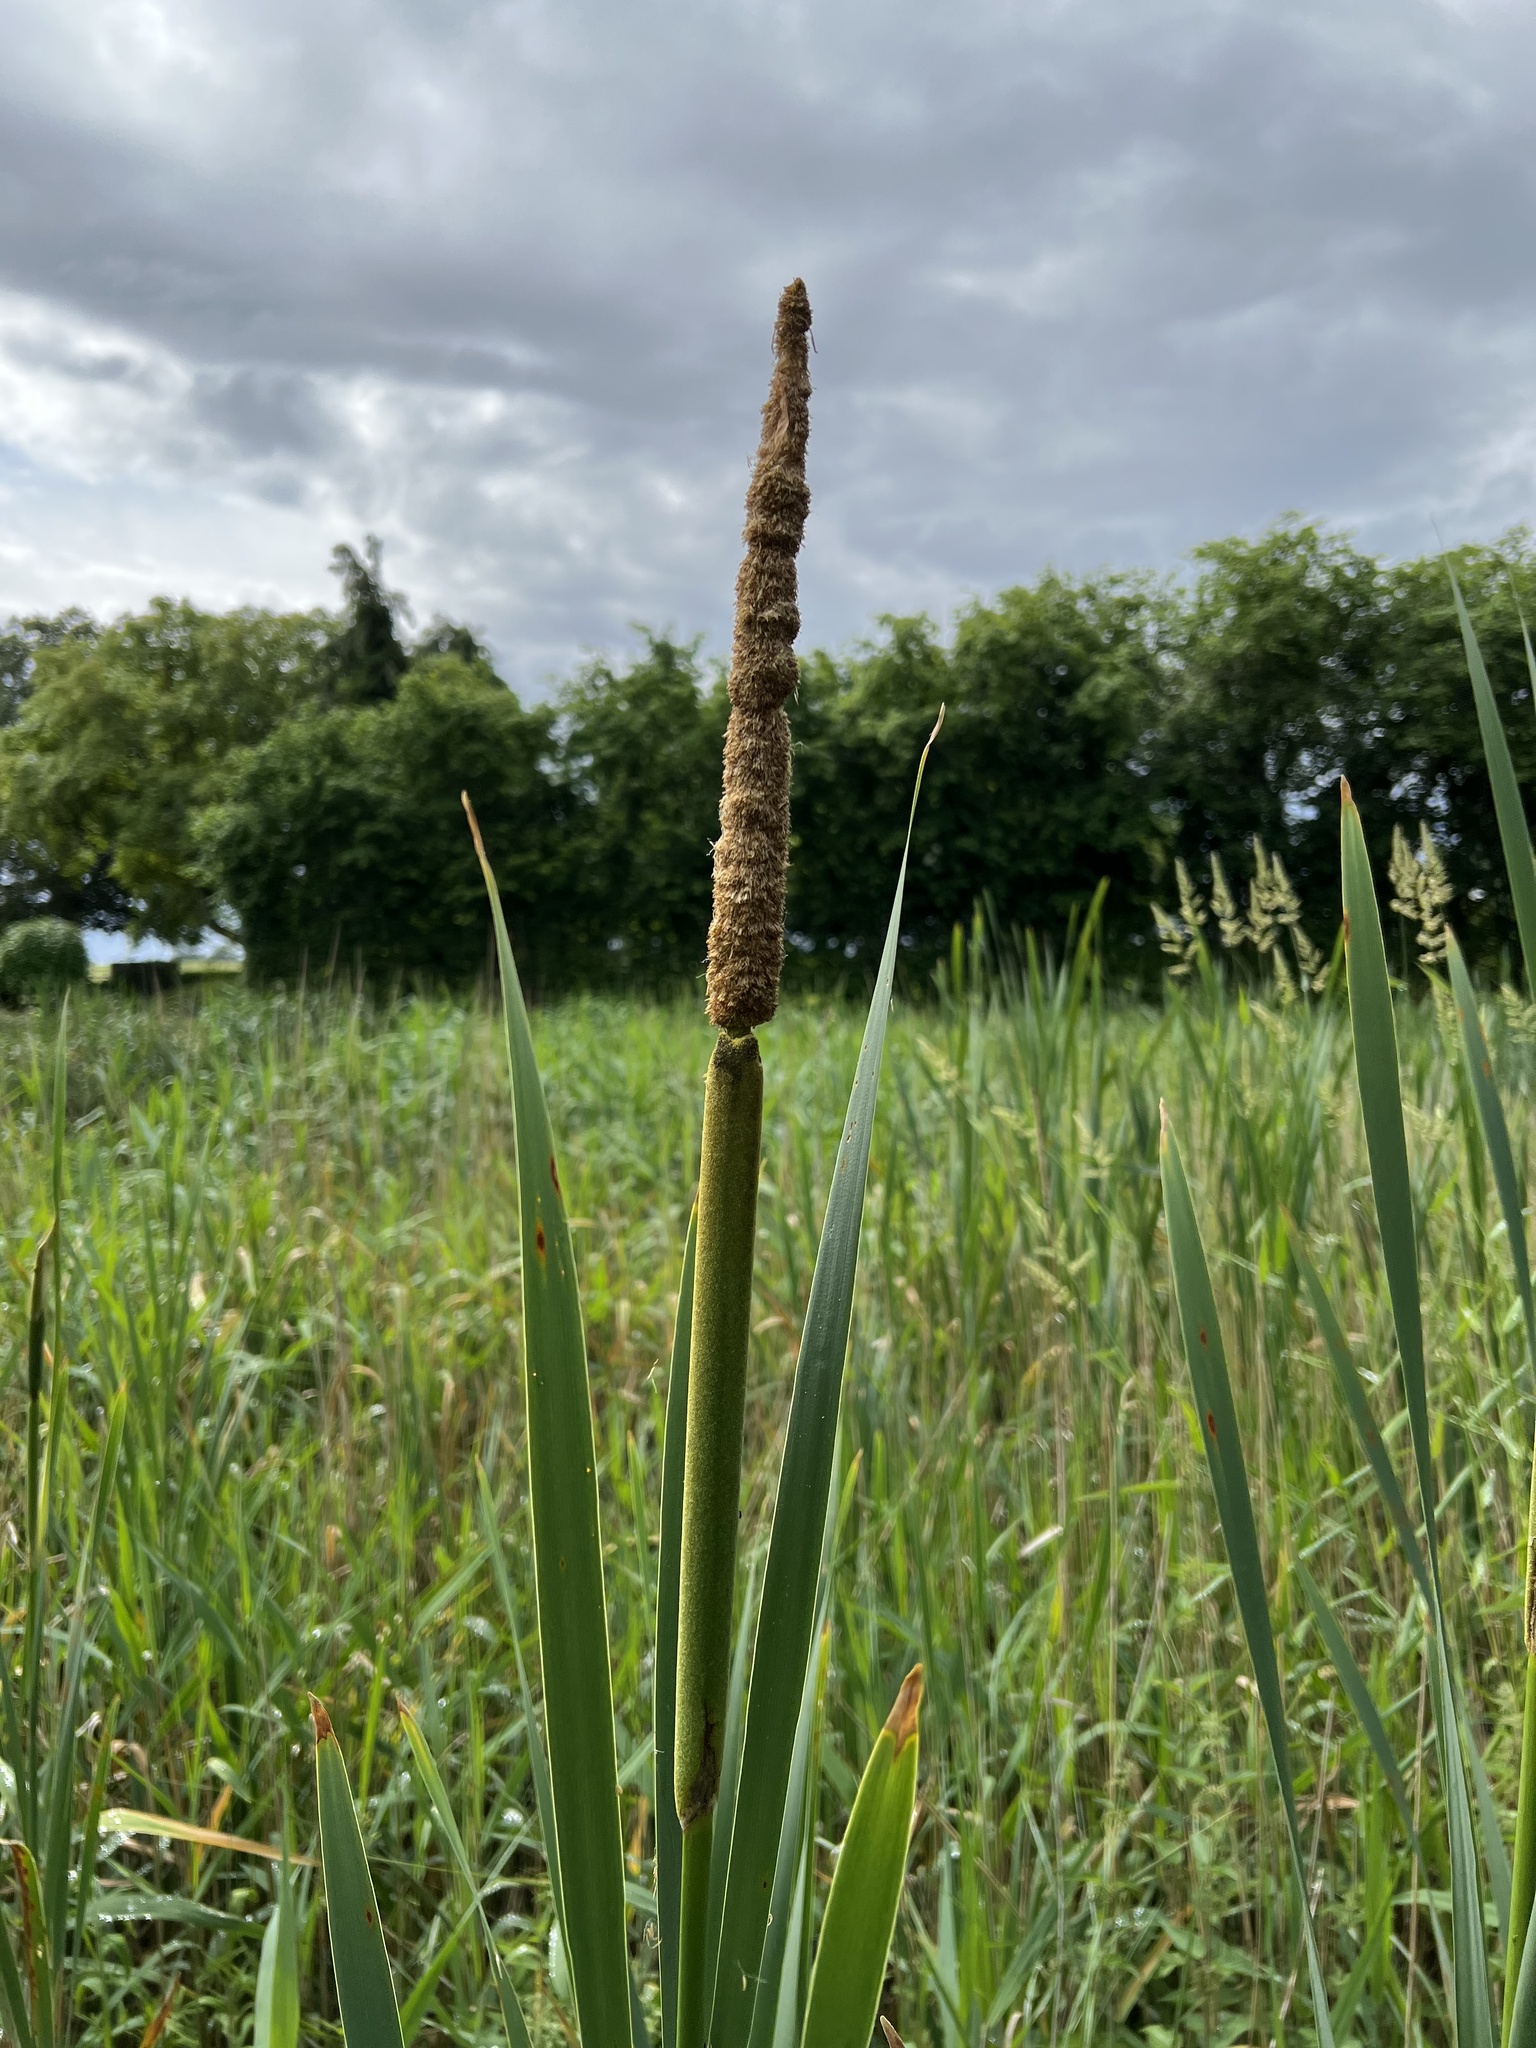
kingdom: Plantae
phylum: Tracheophyta
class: Liliopsida
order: Poales
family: Typhaceae
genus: Typha
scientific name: Typha latifolia
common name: Broadleaf cattail
